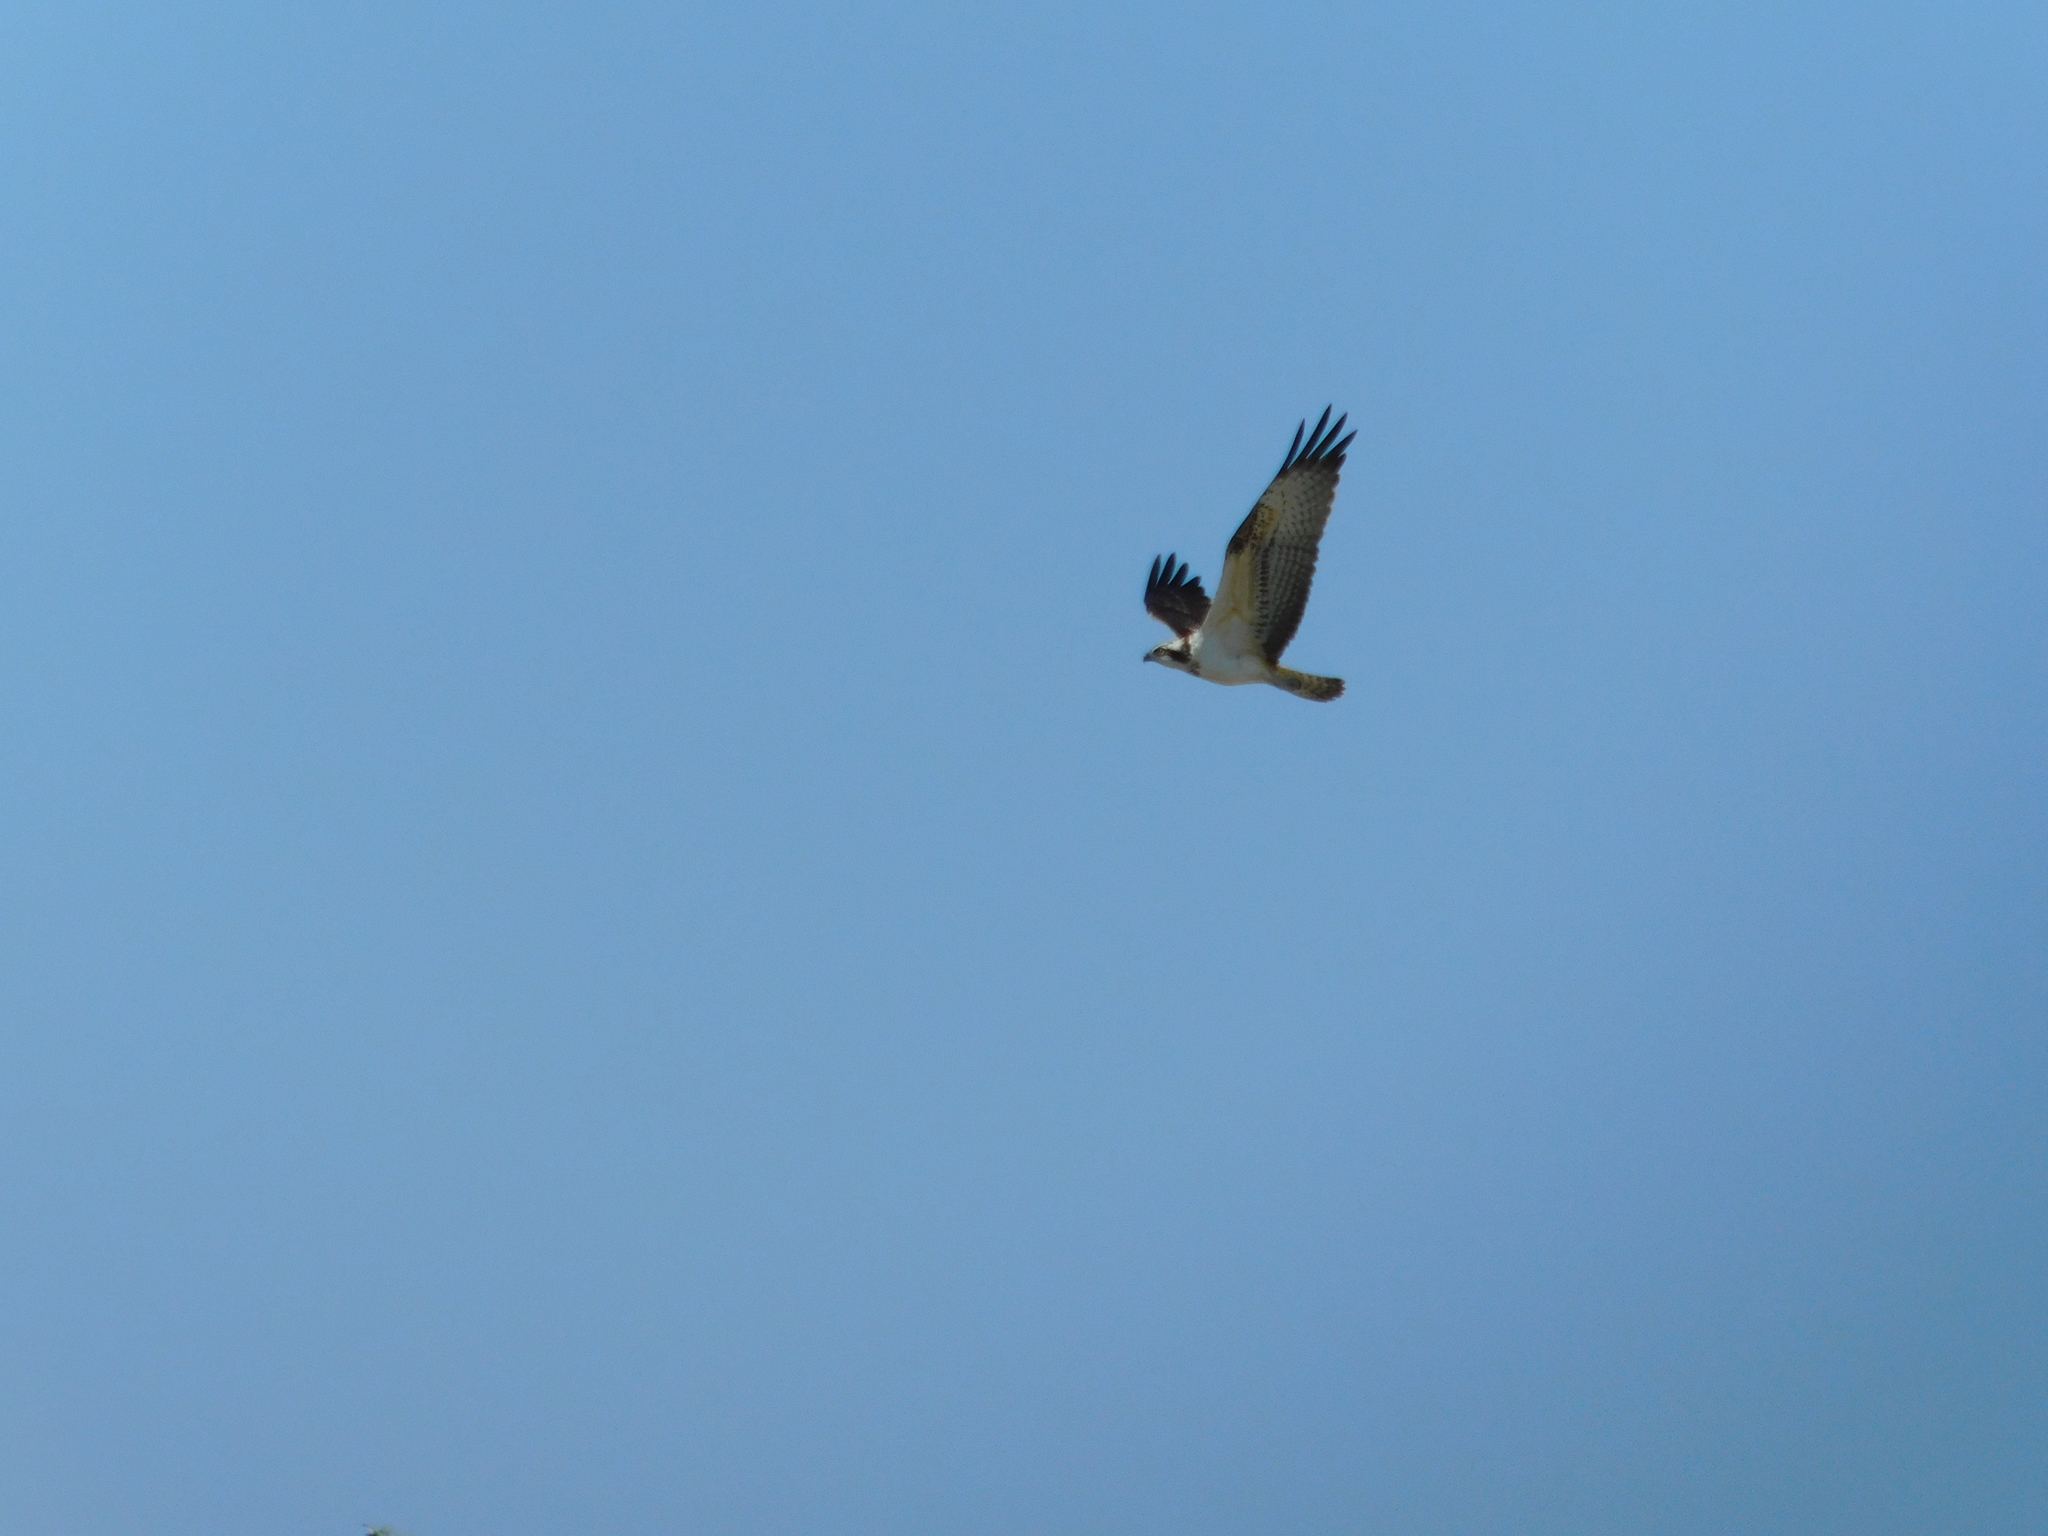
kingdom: Animalia
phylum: Chordata
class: Aves
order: Accipitriformes
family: Pandionidae
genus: Pandion
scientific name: Pandion haliaetus
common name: Osprey
